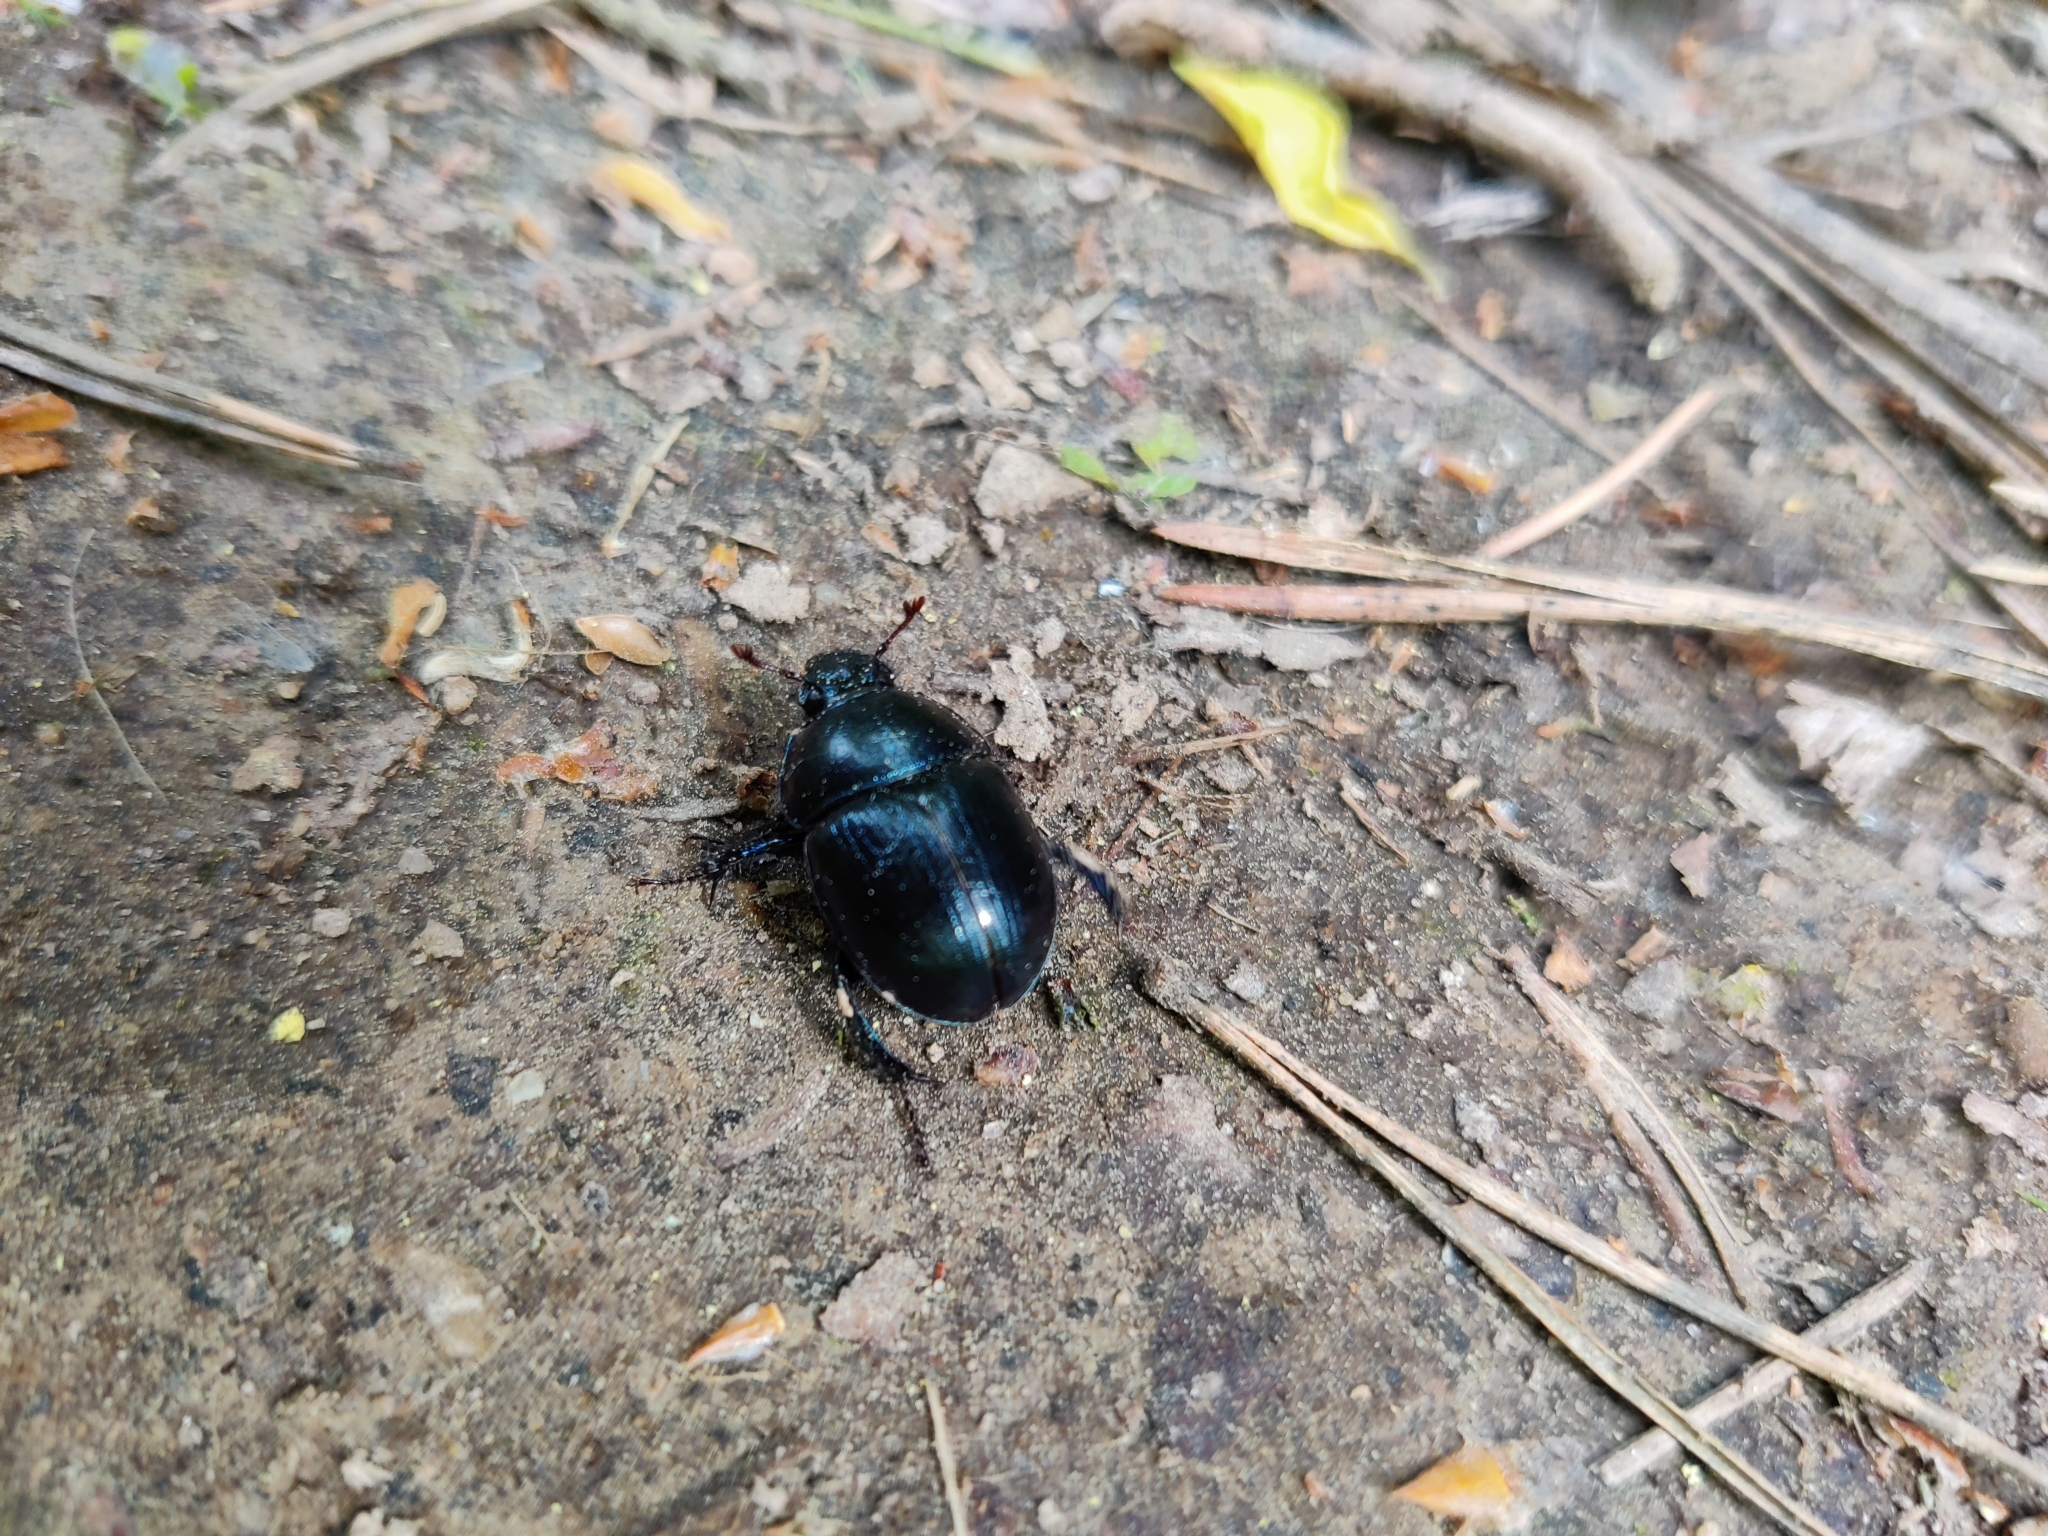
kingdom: Animalia
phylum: Arthropoda
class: Insecta
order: Coleoptera
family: Geotrupidae
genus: Anoplotrupes
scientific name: Anoplotrupes stercorosus
